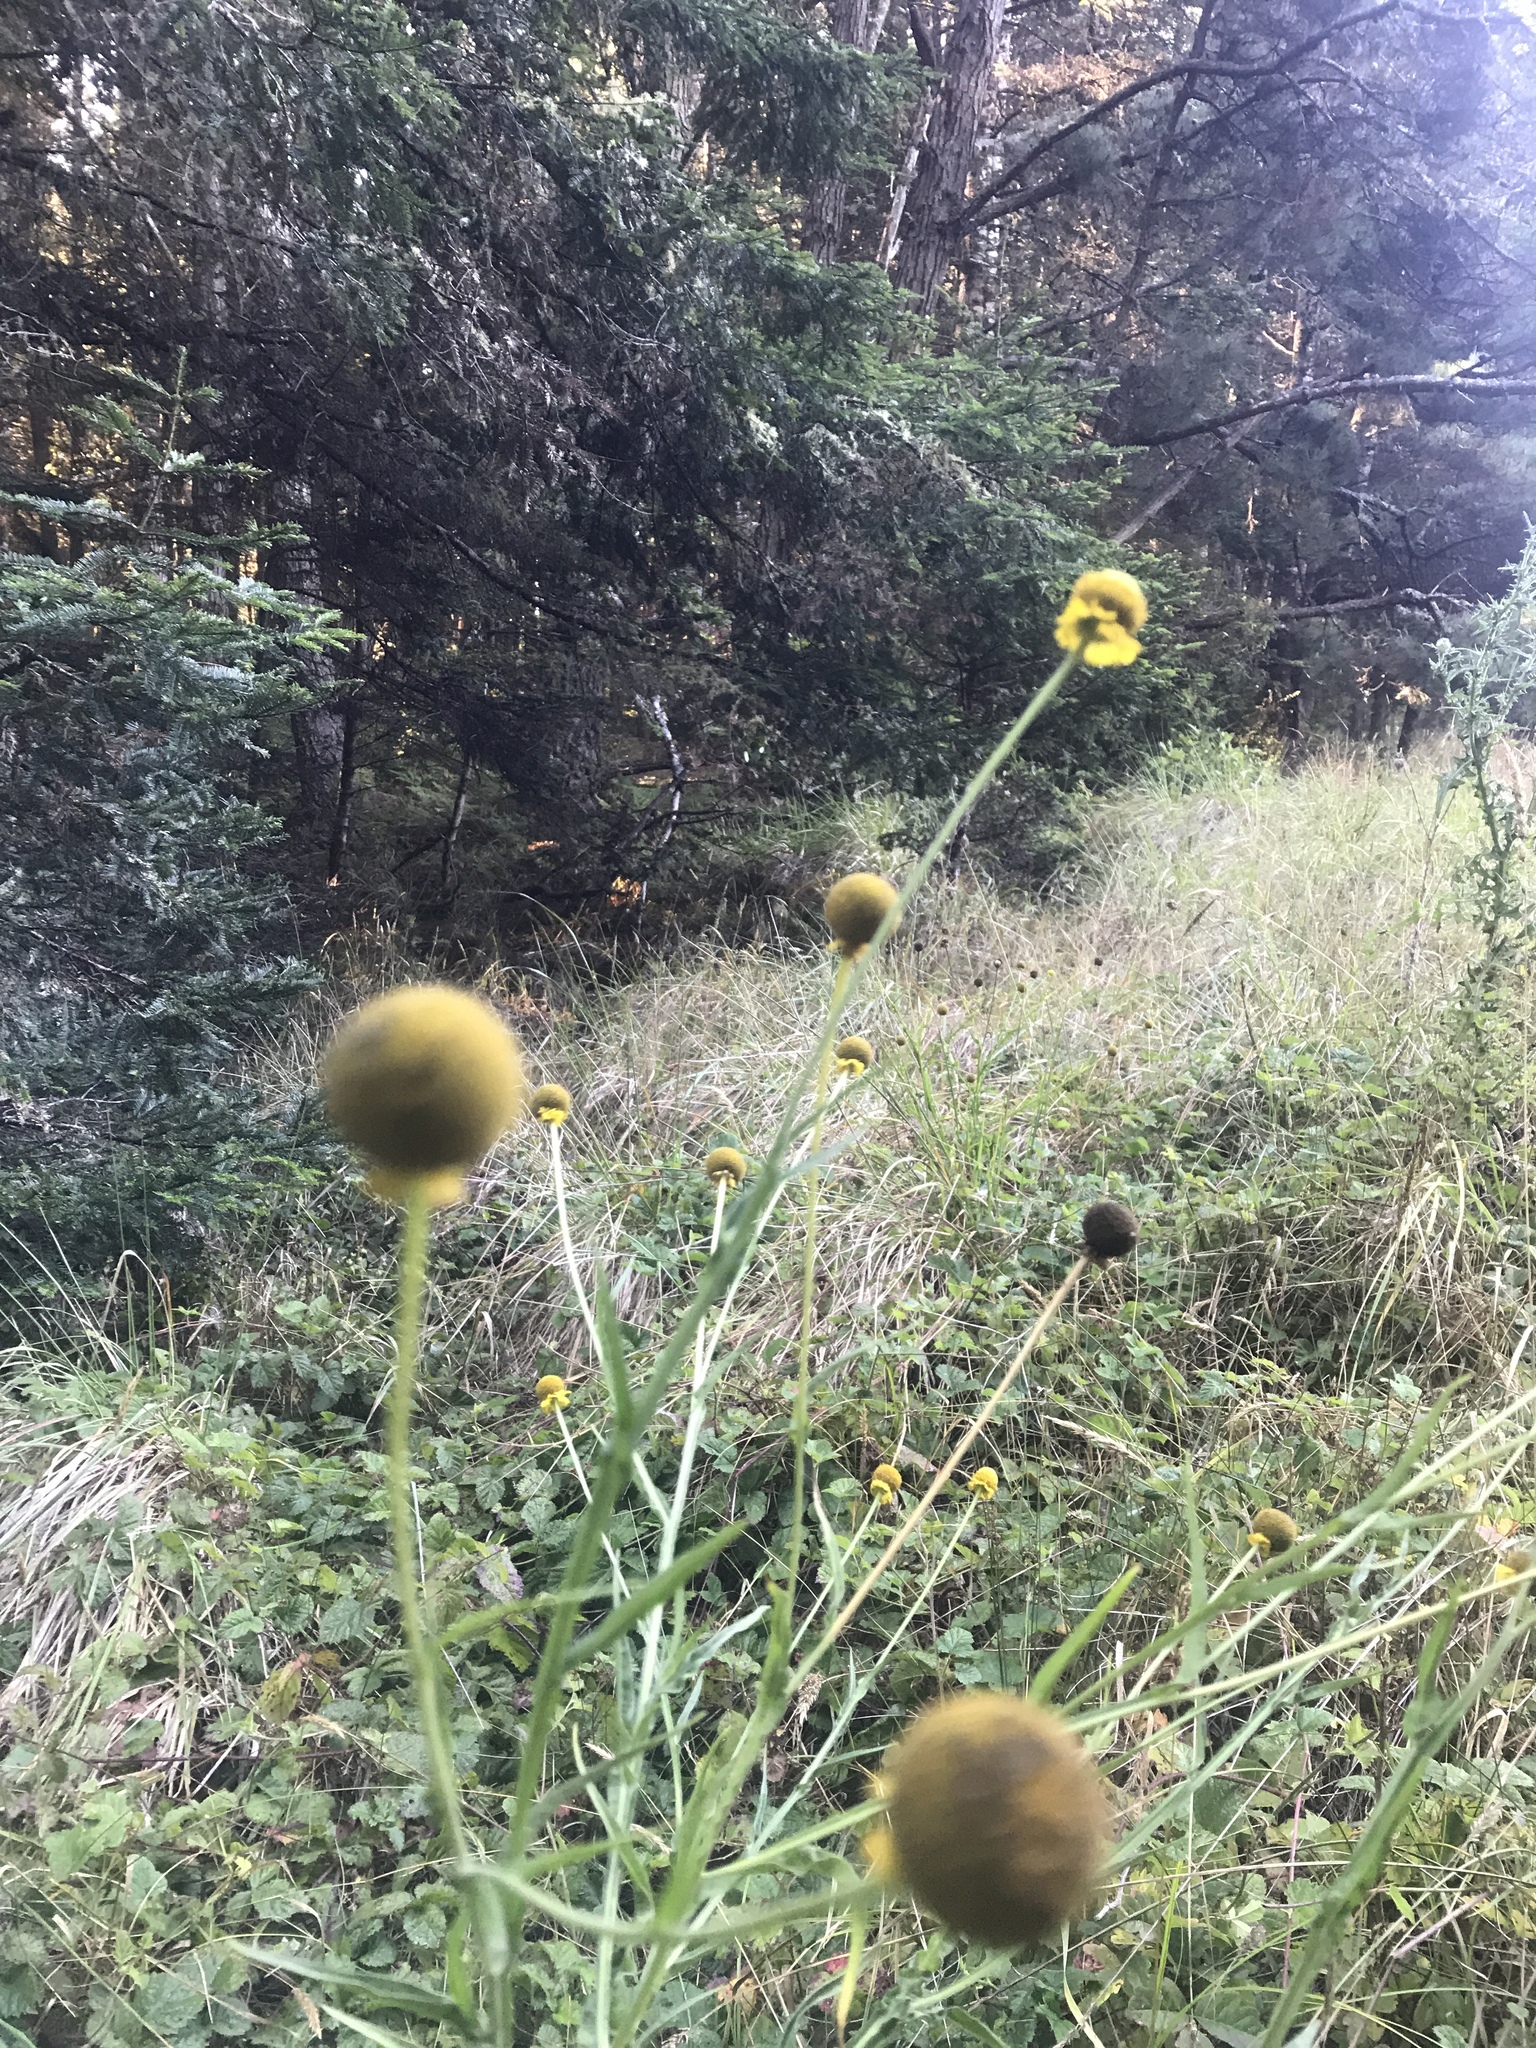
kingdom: Plantae
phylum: Tracheophyta
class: Magnoliopsida
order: Asterales
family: Asteraceae
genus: Helenium
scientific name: Helenium puberulum
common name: Sneezewort
